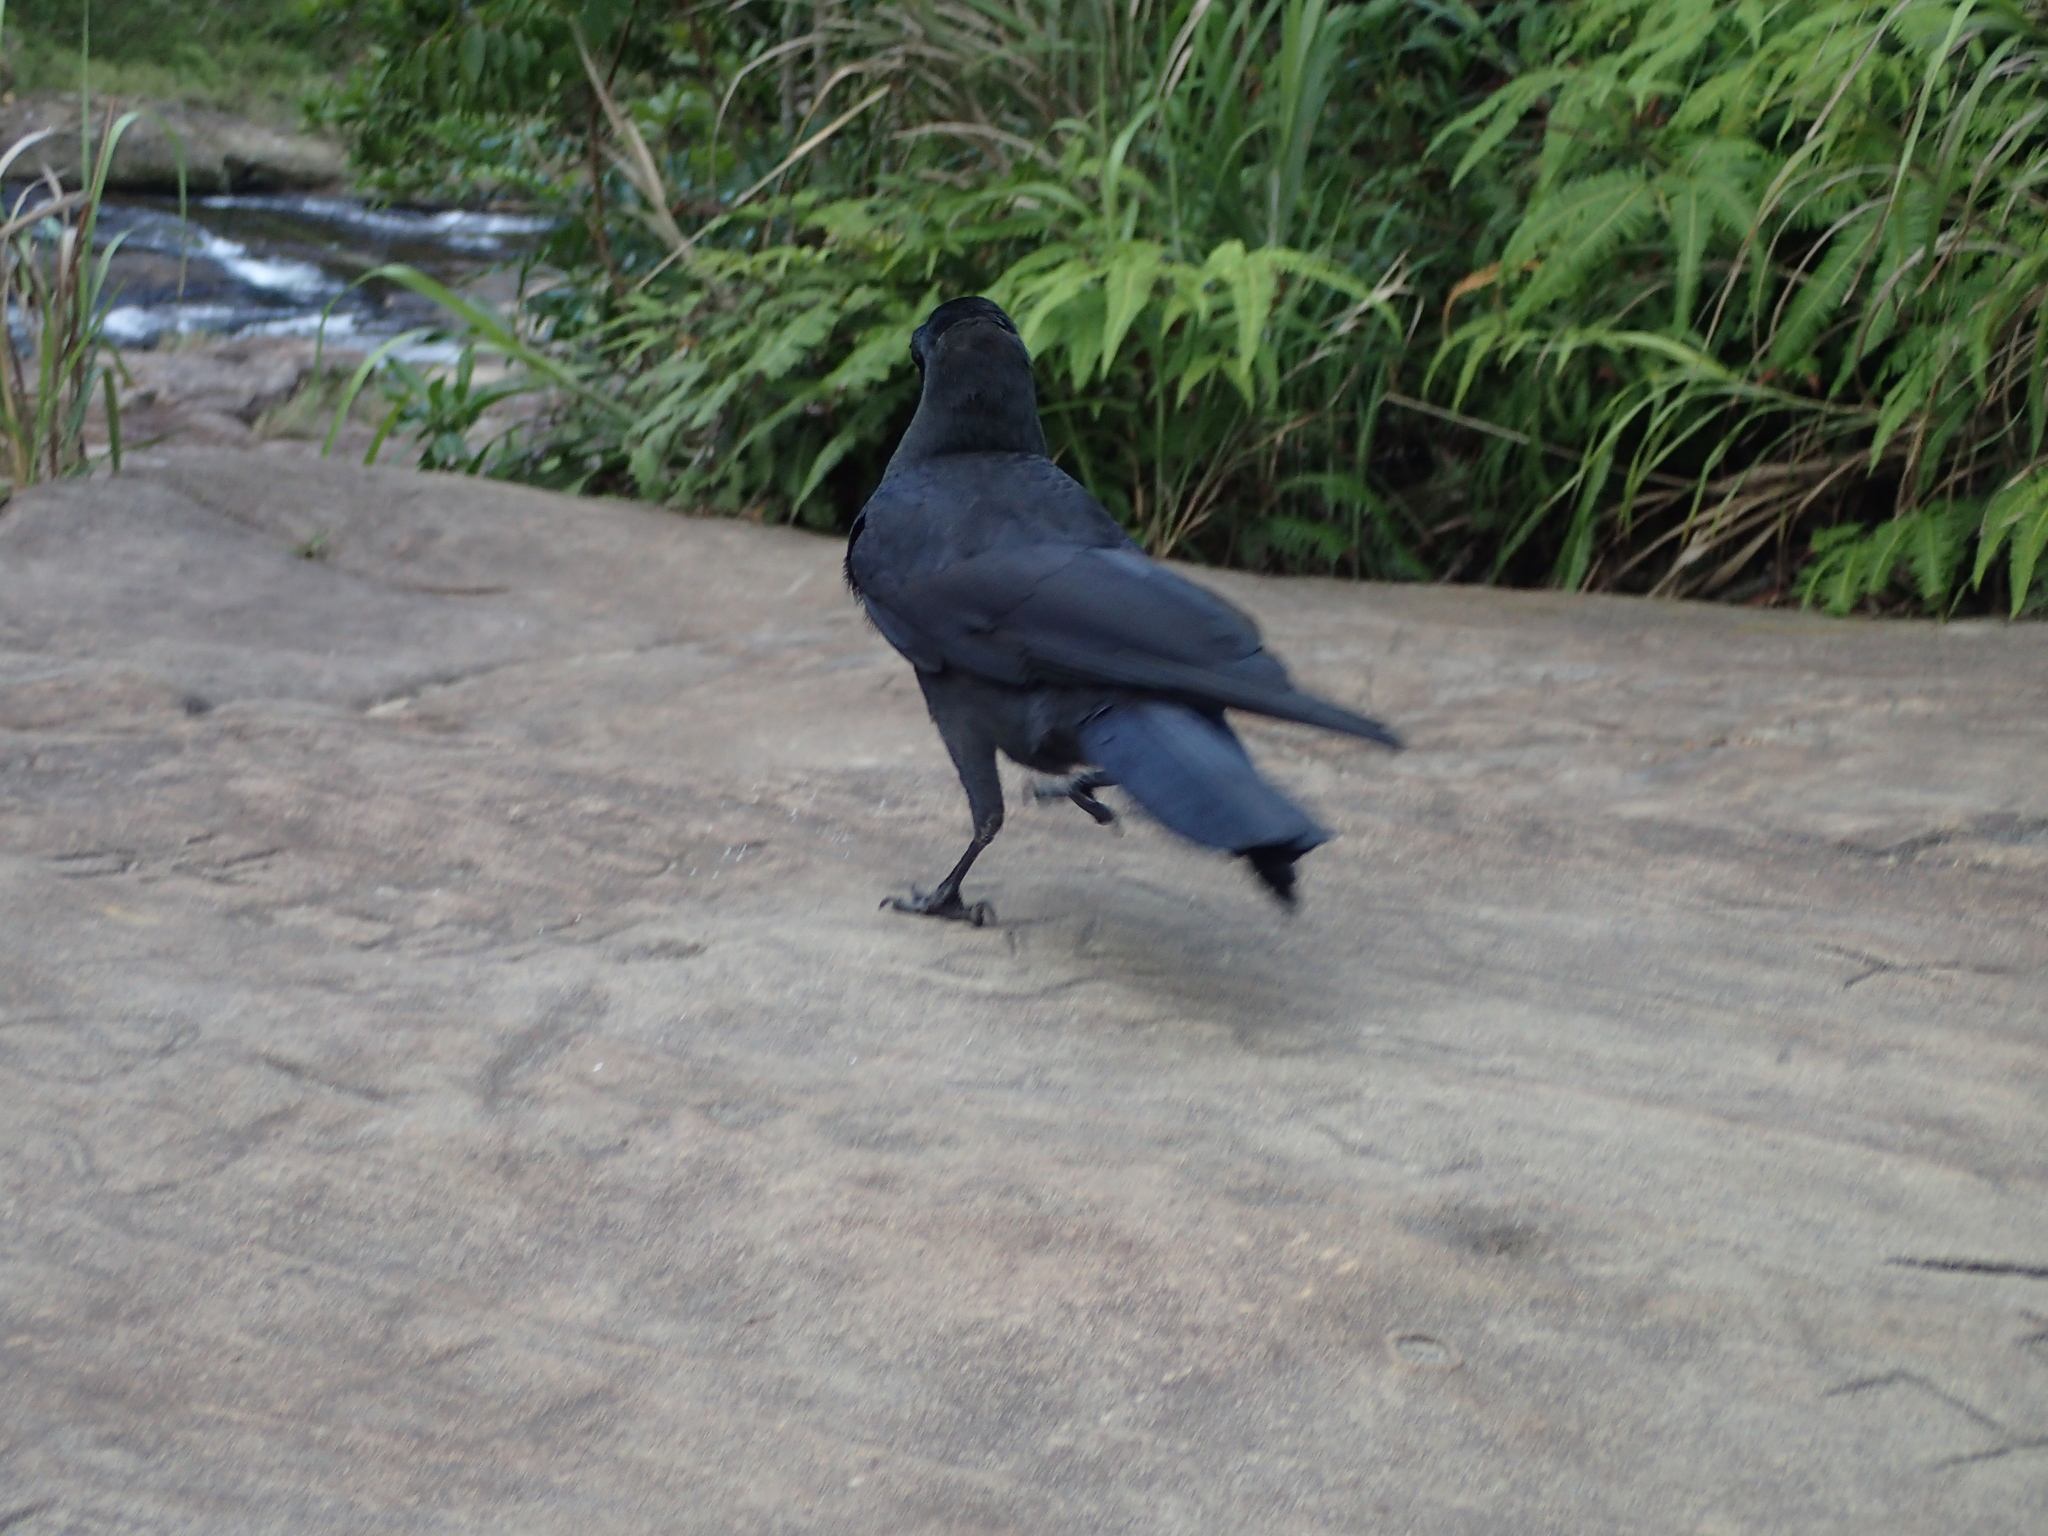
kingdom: Animalia
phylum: Chordata
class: Aves
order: Passeriformes
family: Corvidae
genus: Corvus
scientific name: Corvus macrorhynchos
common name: Large-billed crow
